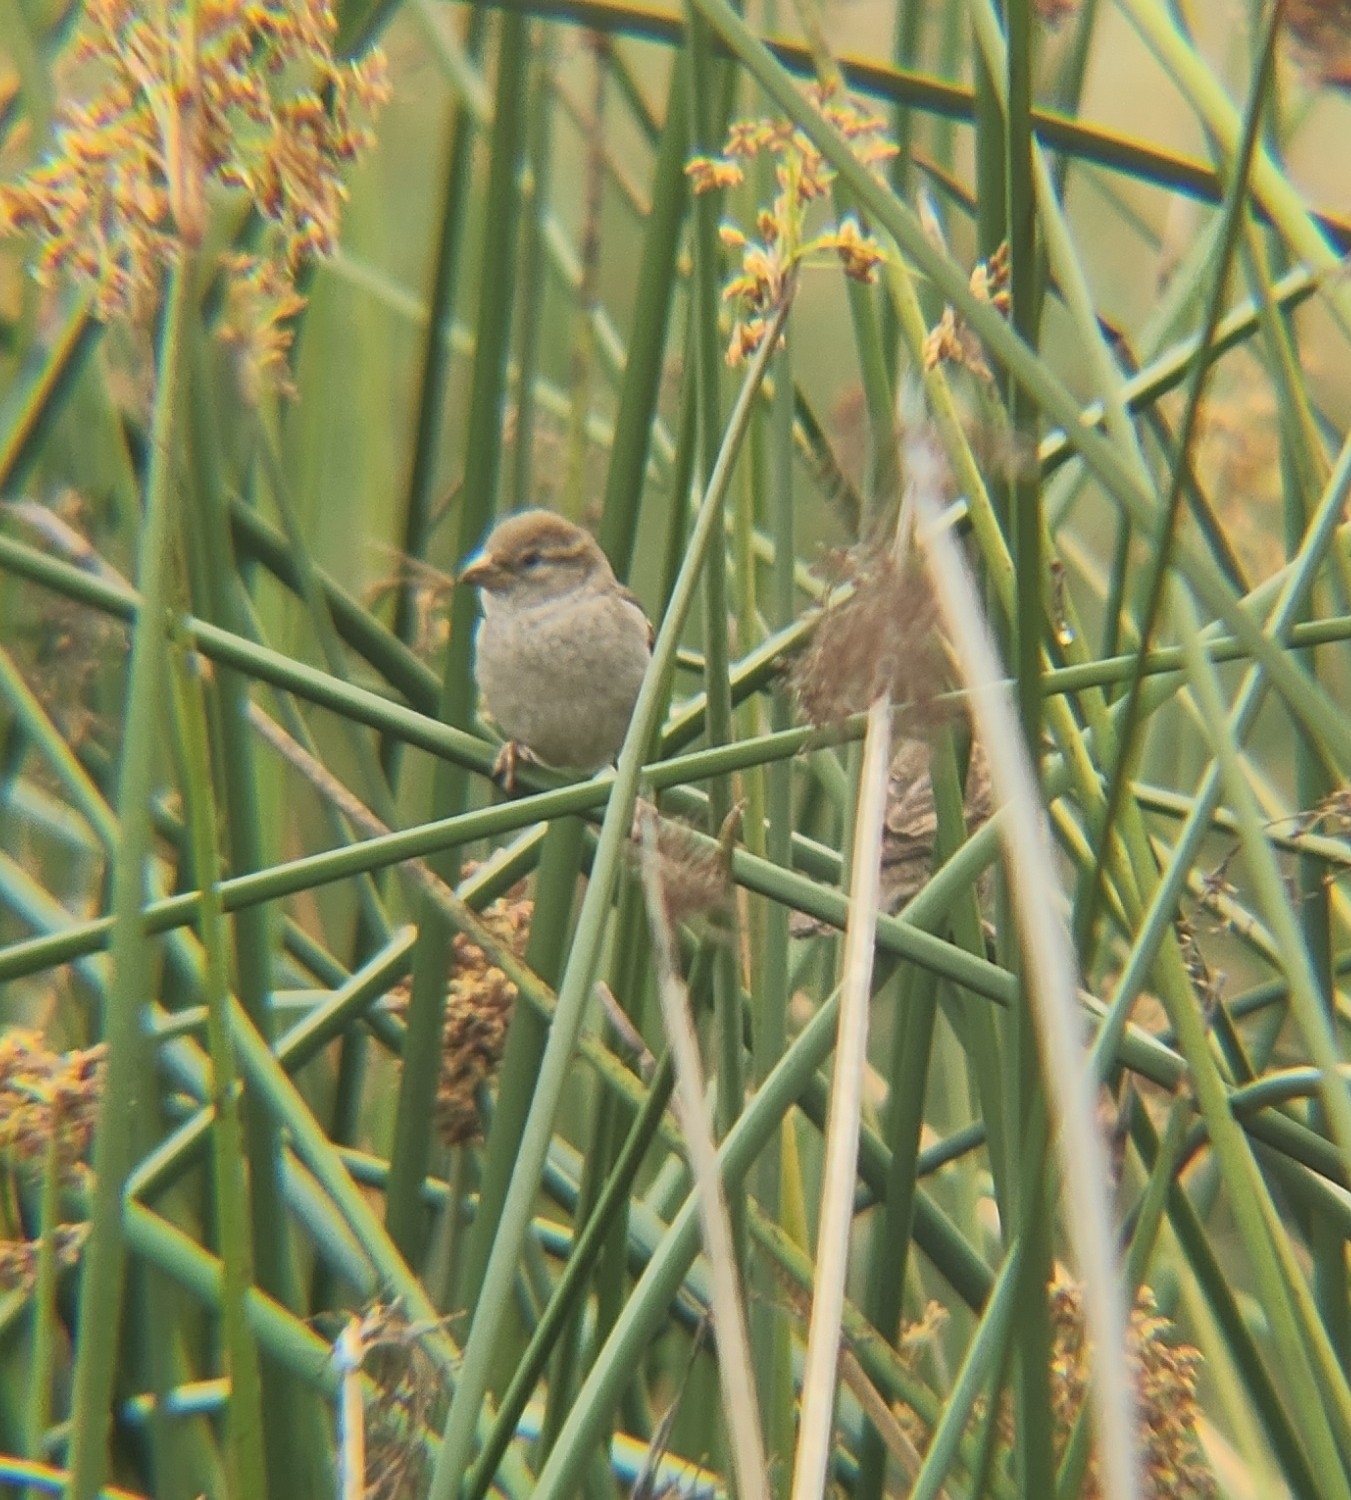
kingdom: Animalia
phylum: Chordata
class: Aves
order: Passeriformes
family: Passeridae
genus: Passer
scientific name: Passer domesticus
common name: House sparrow
